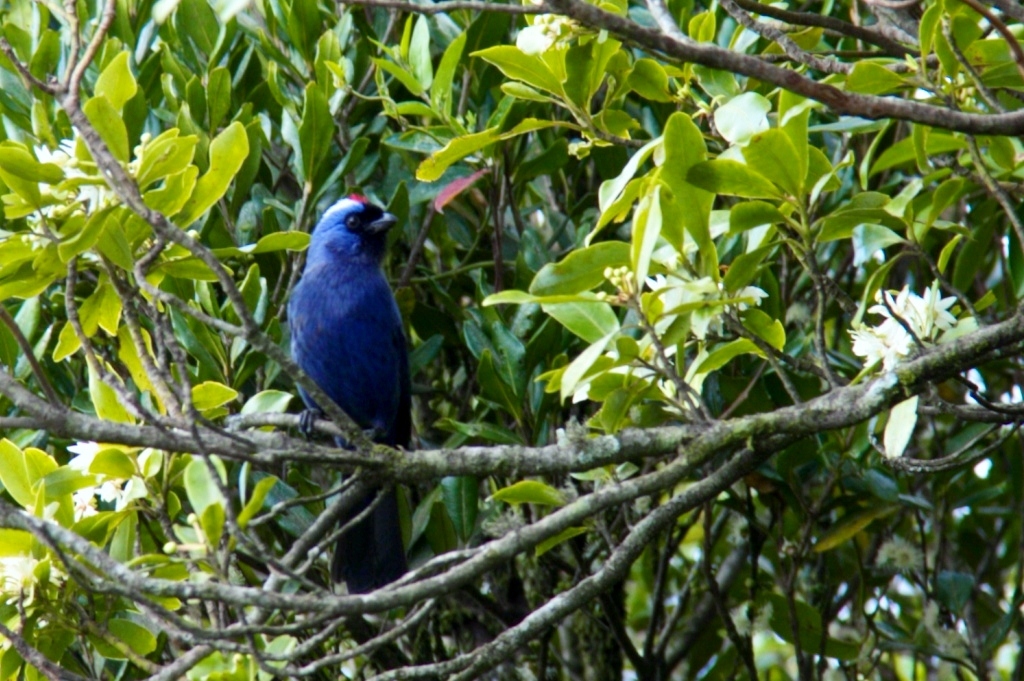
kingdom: Animalia
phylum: Chordata
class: Aves
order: Passeriformes
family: Thraupidae
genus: Stephanophorus
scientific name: Stephanophorus diadematus
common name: Diademed tanager
